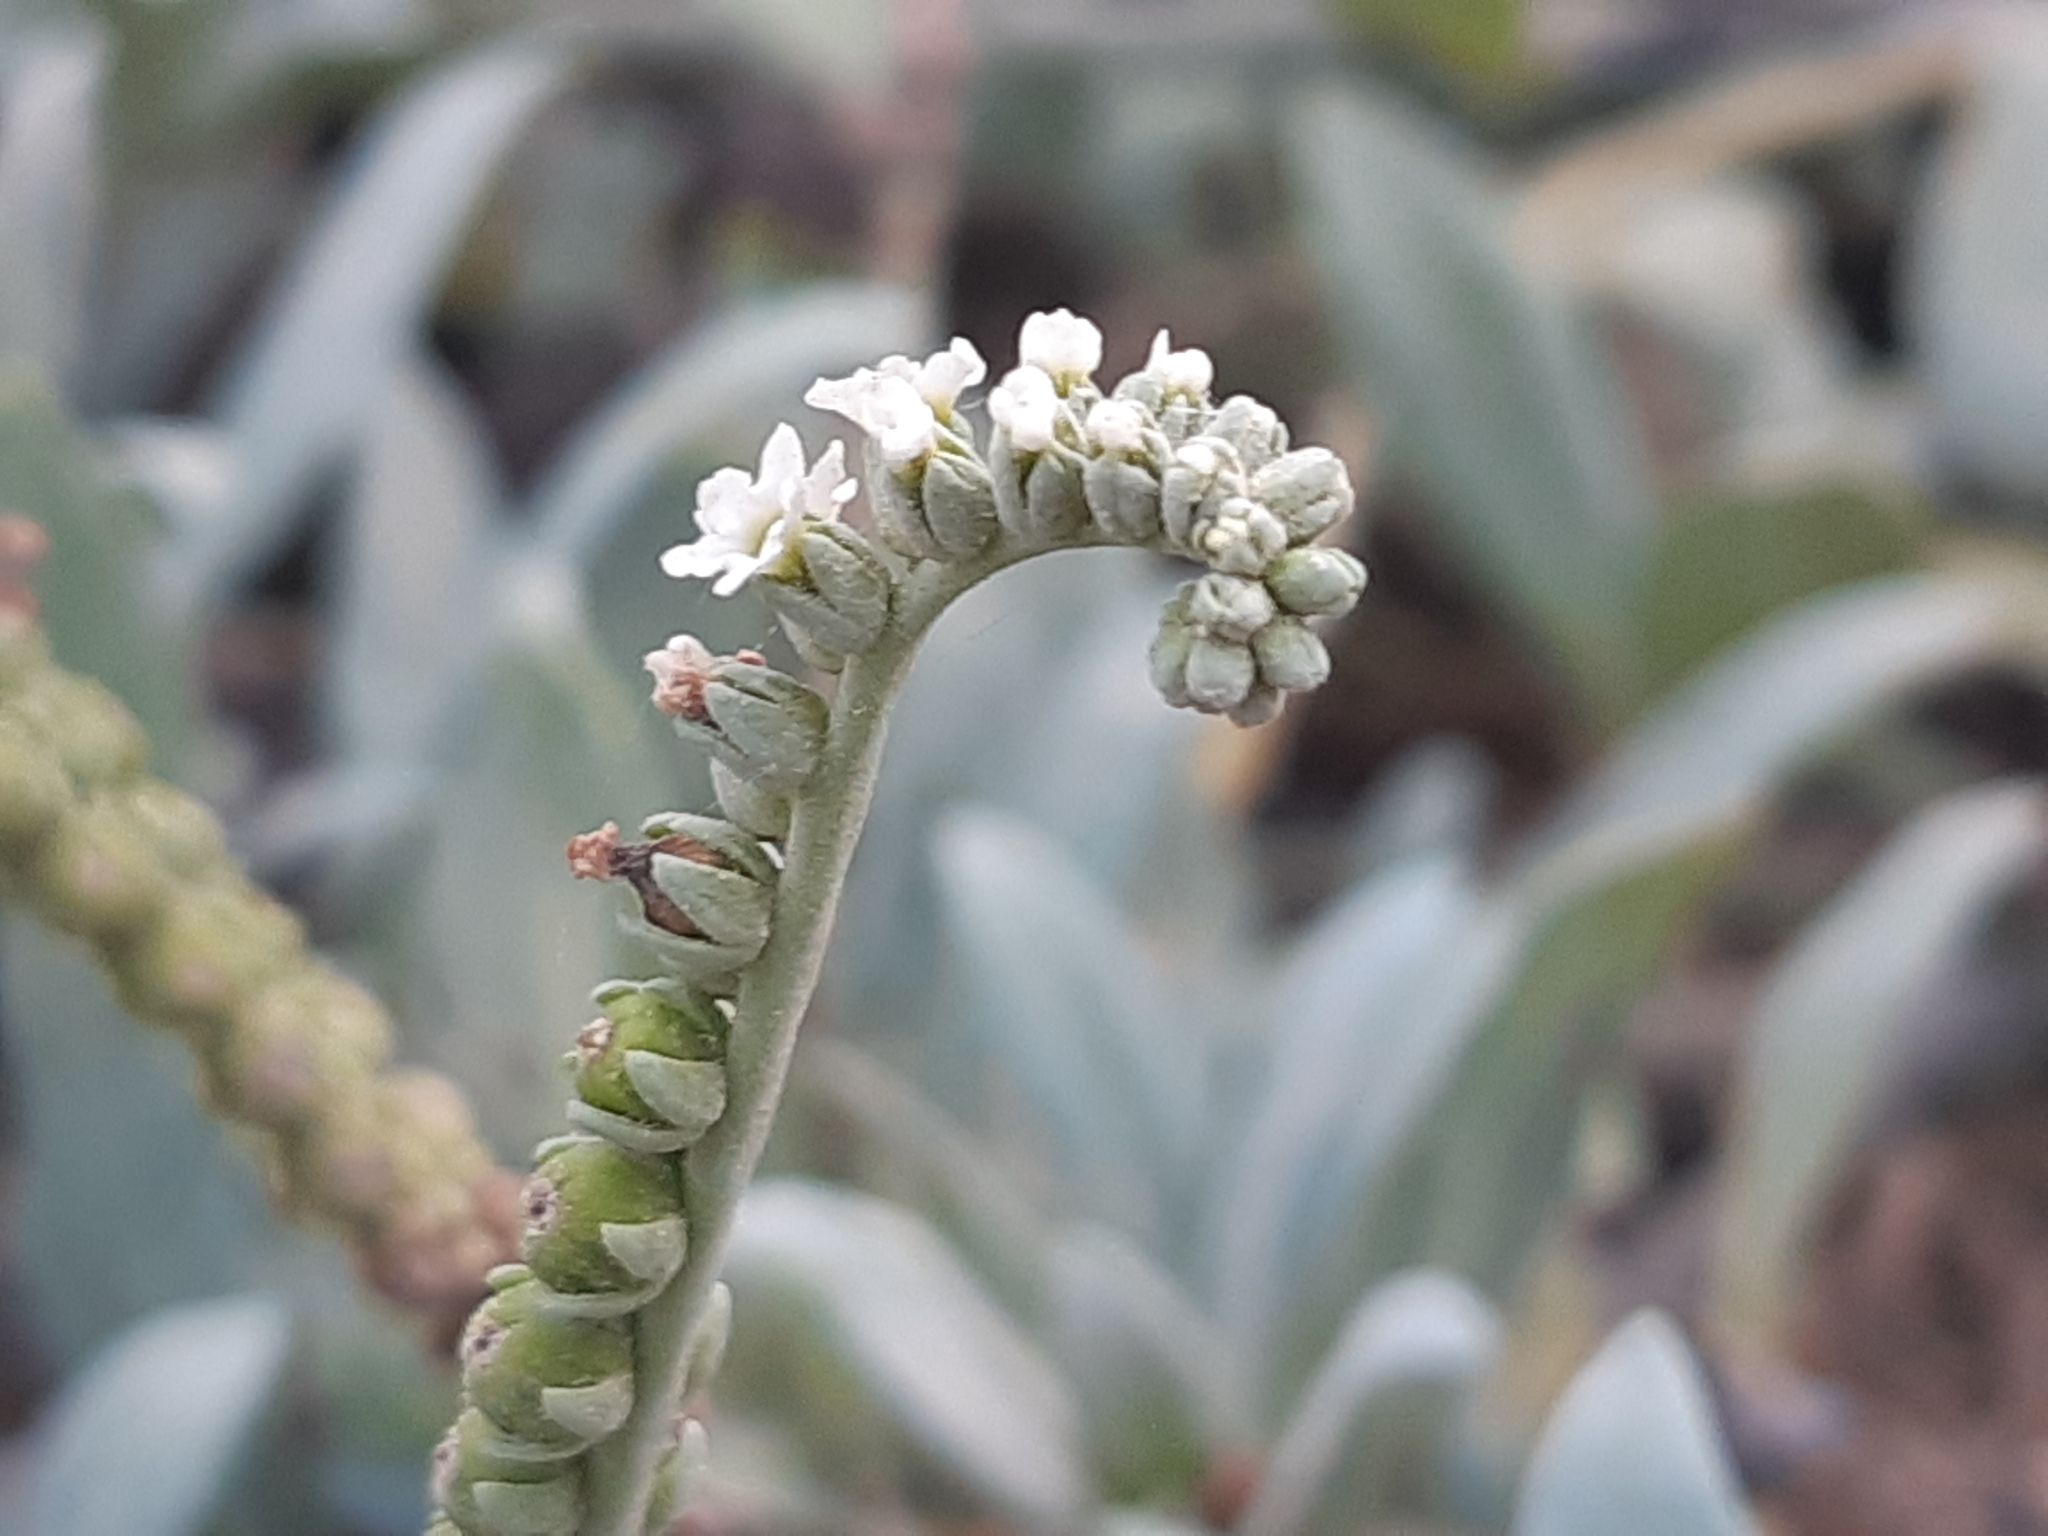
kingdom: Plantae
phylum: Tracheophyta
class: Magnoliopsida
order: Boraginales
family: Heliotropiaceae
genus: Heliotropium
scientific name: Heliotropium curassavicum
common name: Seaside heliotrope
